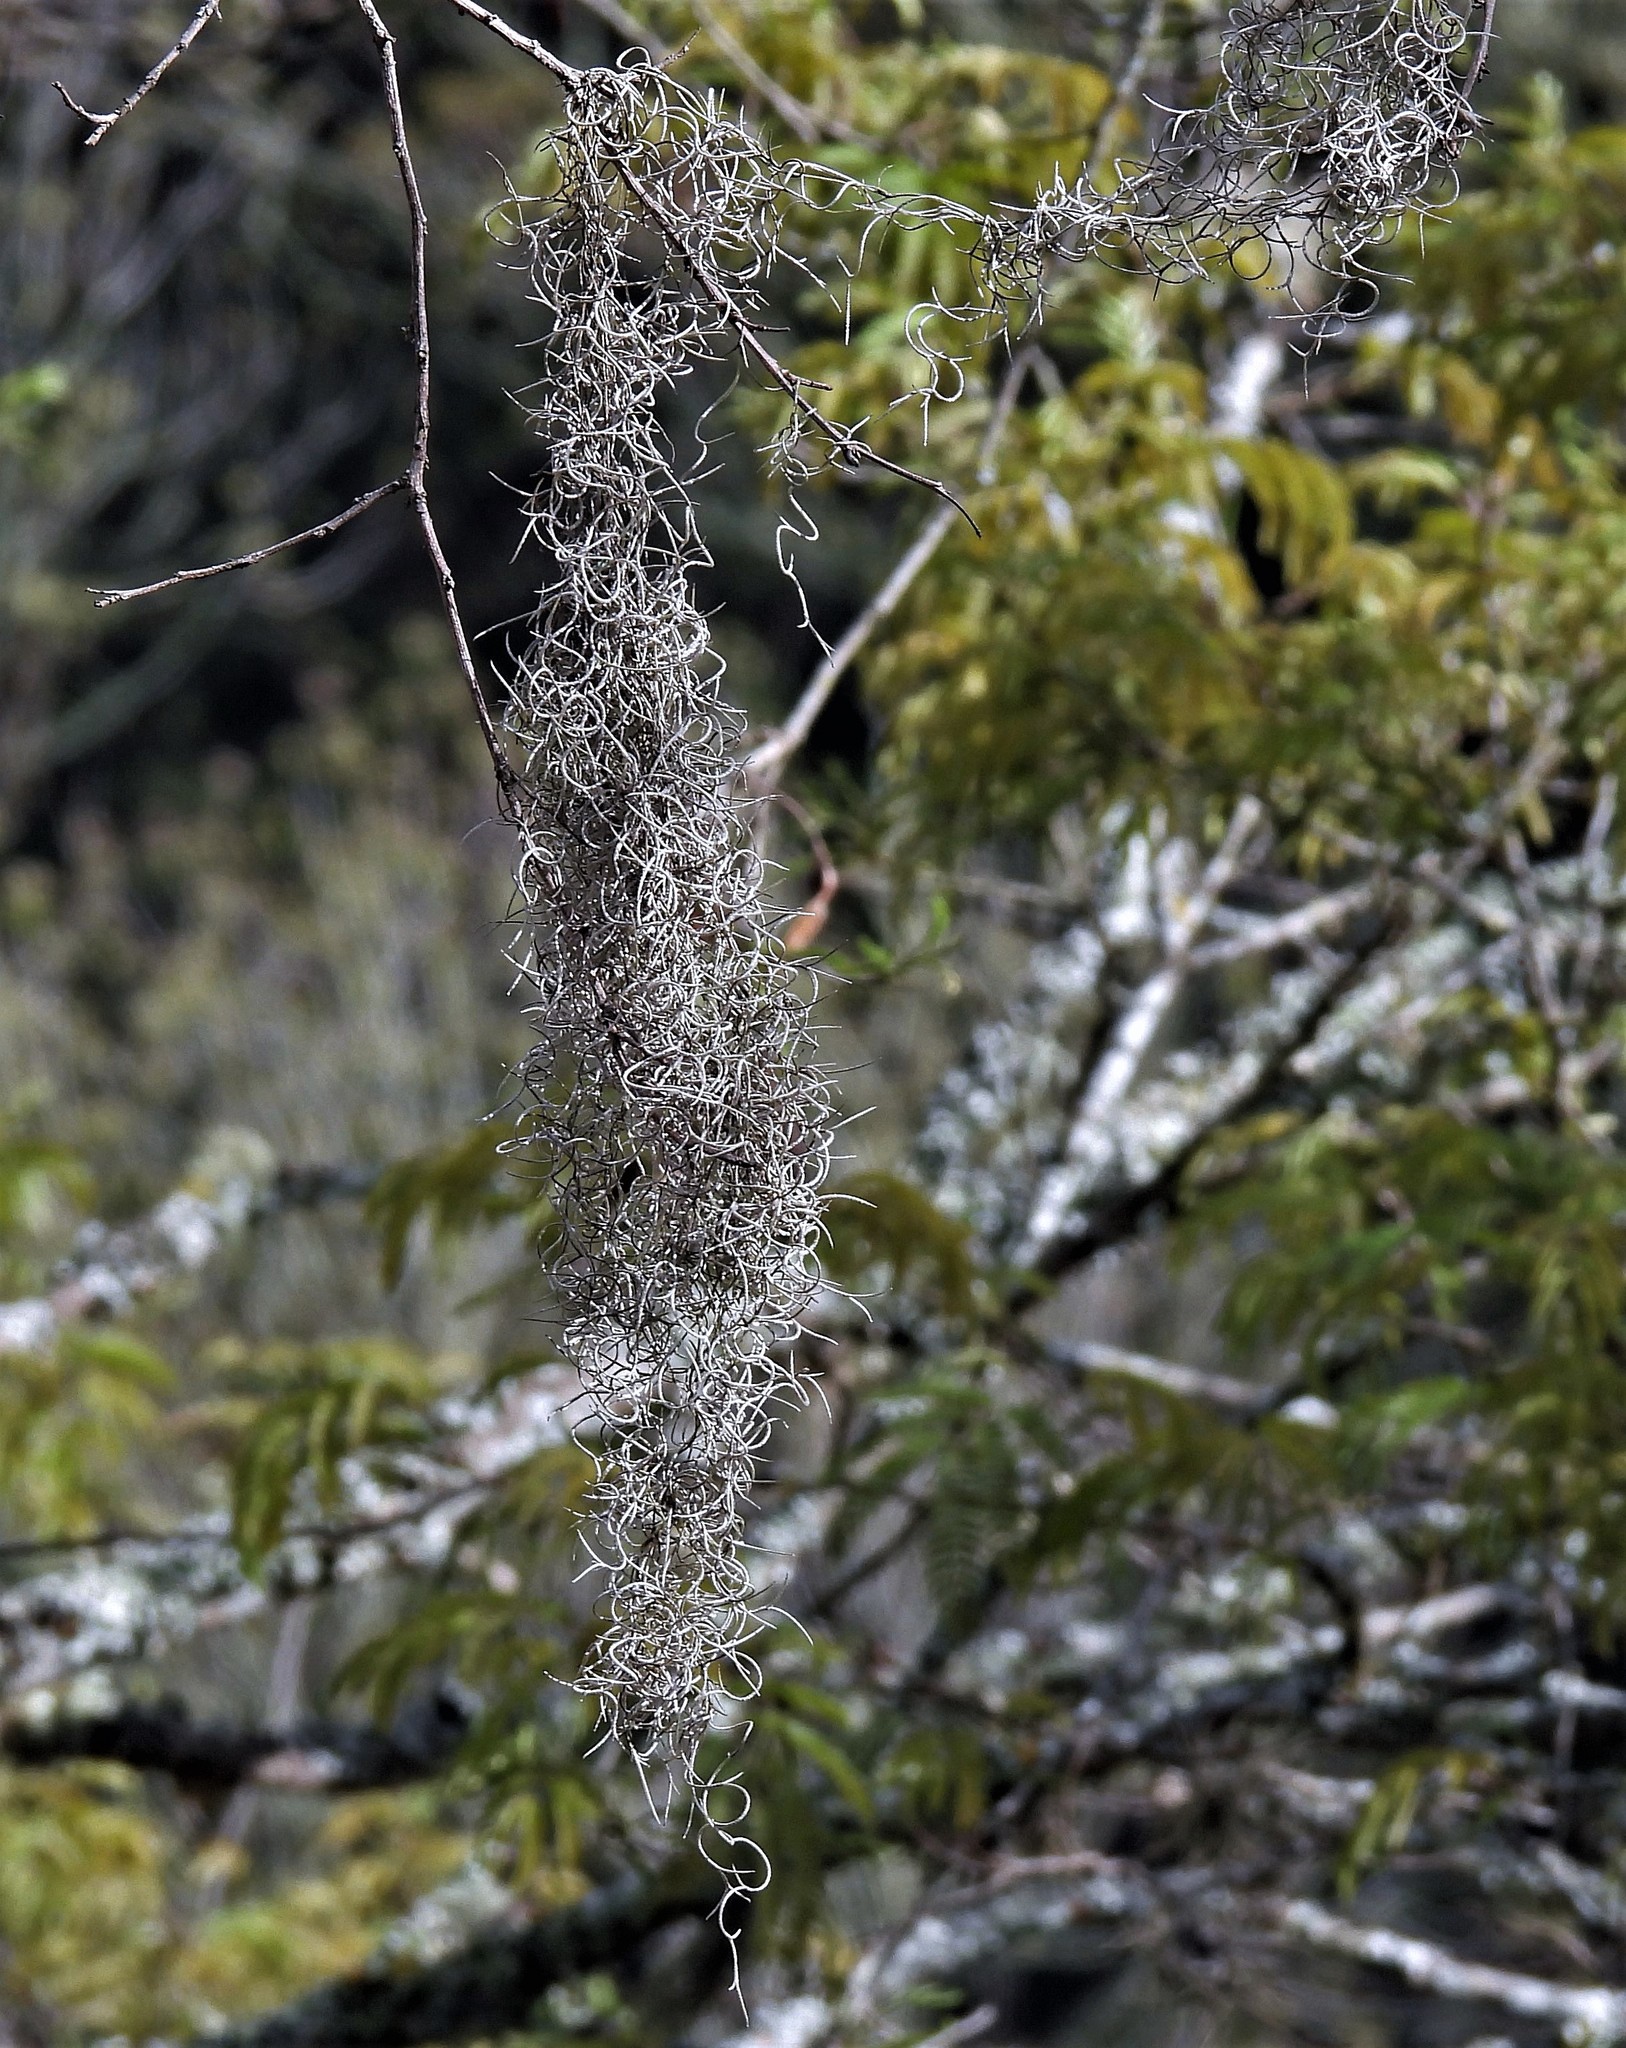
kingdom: Plantae
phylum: Tracheophyta
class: Liliopsida
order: Poales
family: Bromeliaceae
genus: Tillandsia
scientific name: Tillandsia usneoides
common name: Spanish moss
